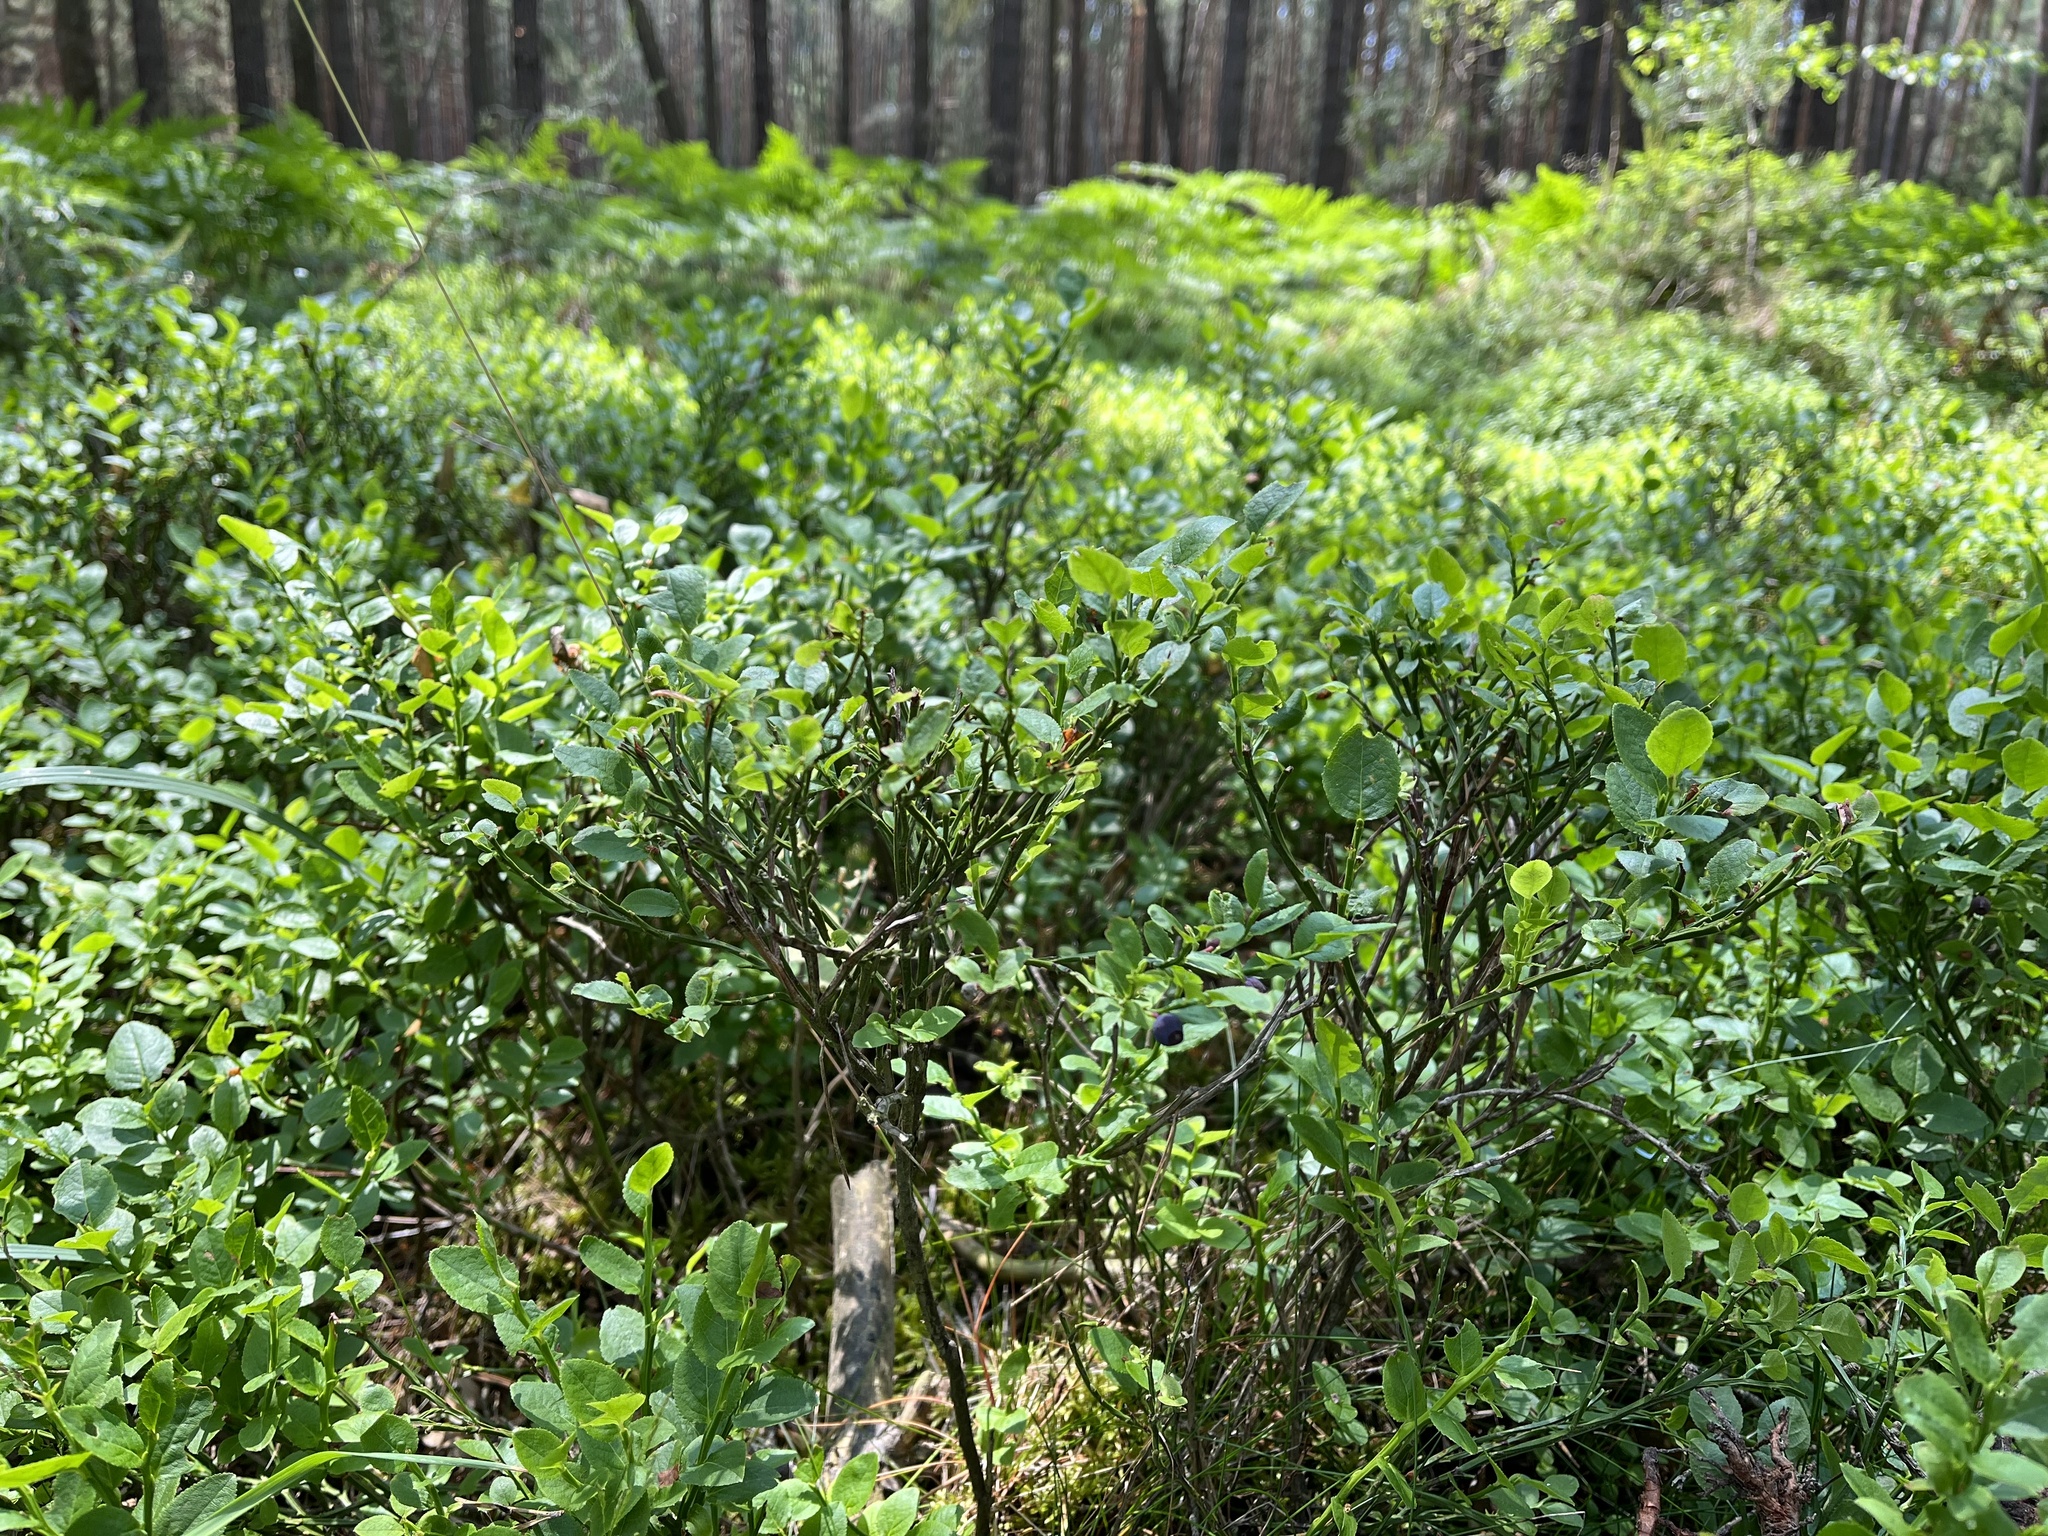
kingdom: Plantae
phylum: Tracheophyta
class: Magnoliopsida
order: Ericales
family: Ericaceae
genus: Vaccinium
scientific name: Vaccinium myrtillus
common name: Bilberry
